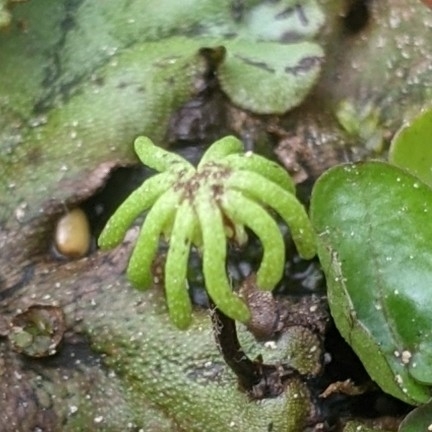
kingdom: Plantae
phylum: Marchantiophyta
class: Marchantiopsida
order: Marchantiales
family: Marchantiaceae
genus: Marchantia
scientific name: Marchantia polymorpha
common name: Common liverwort
